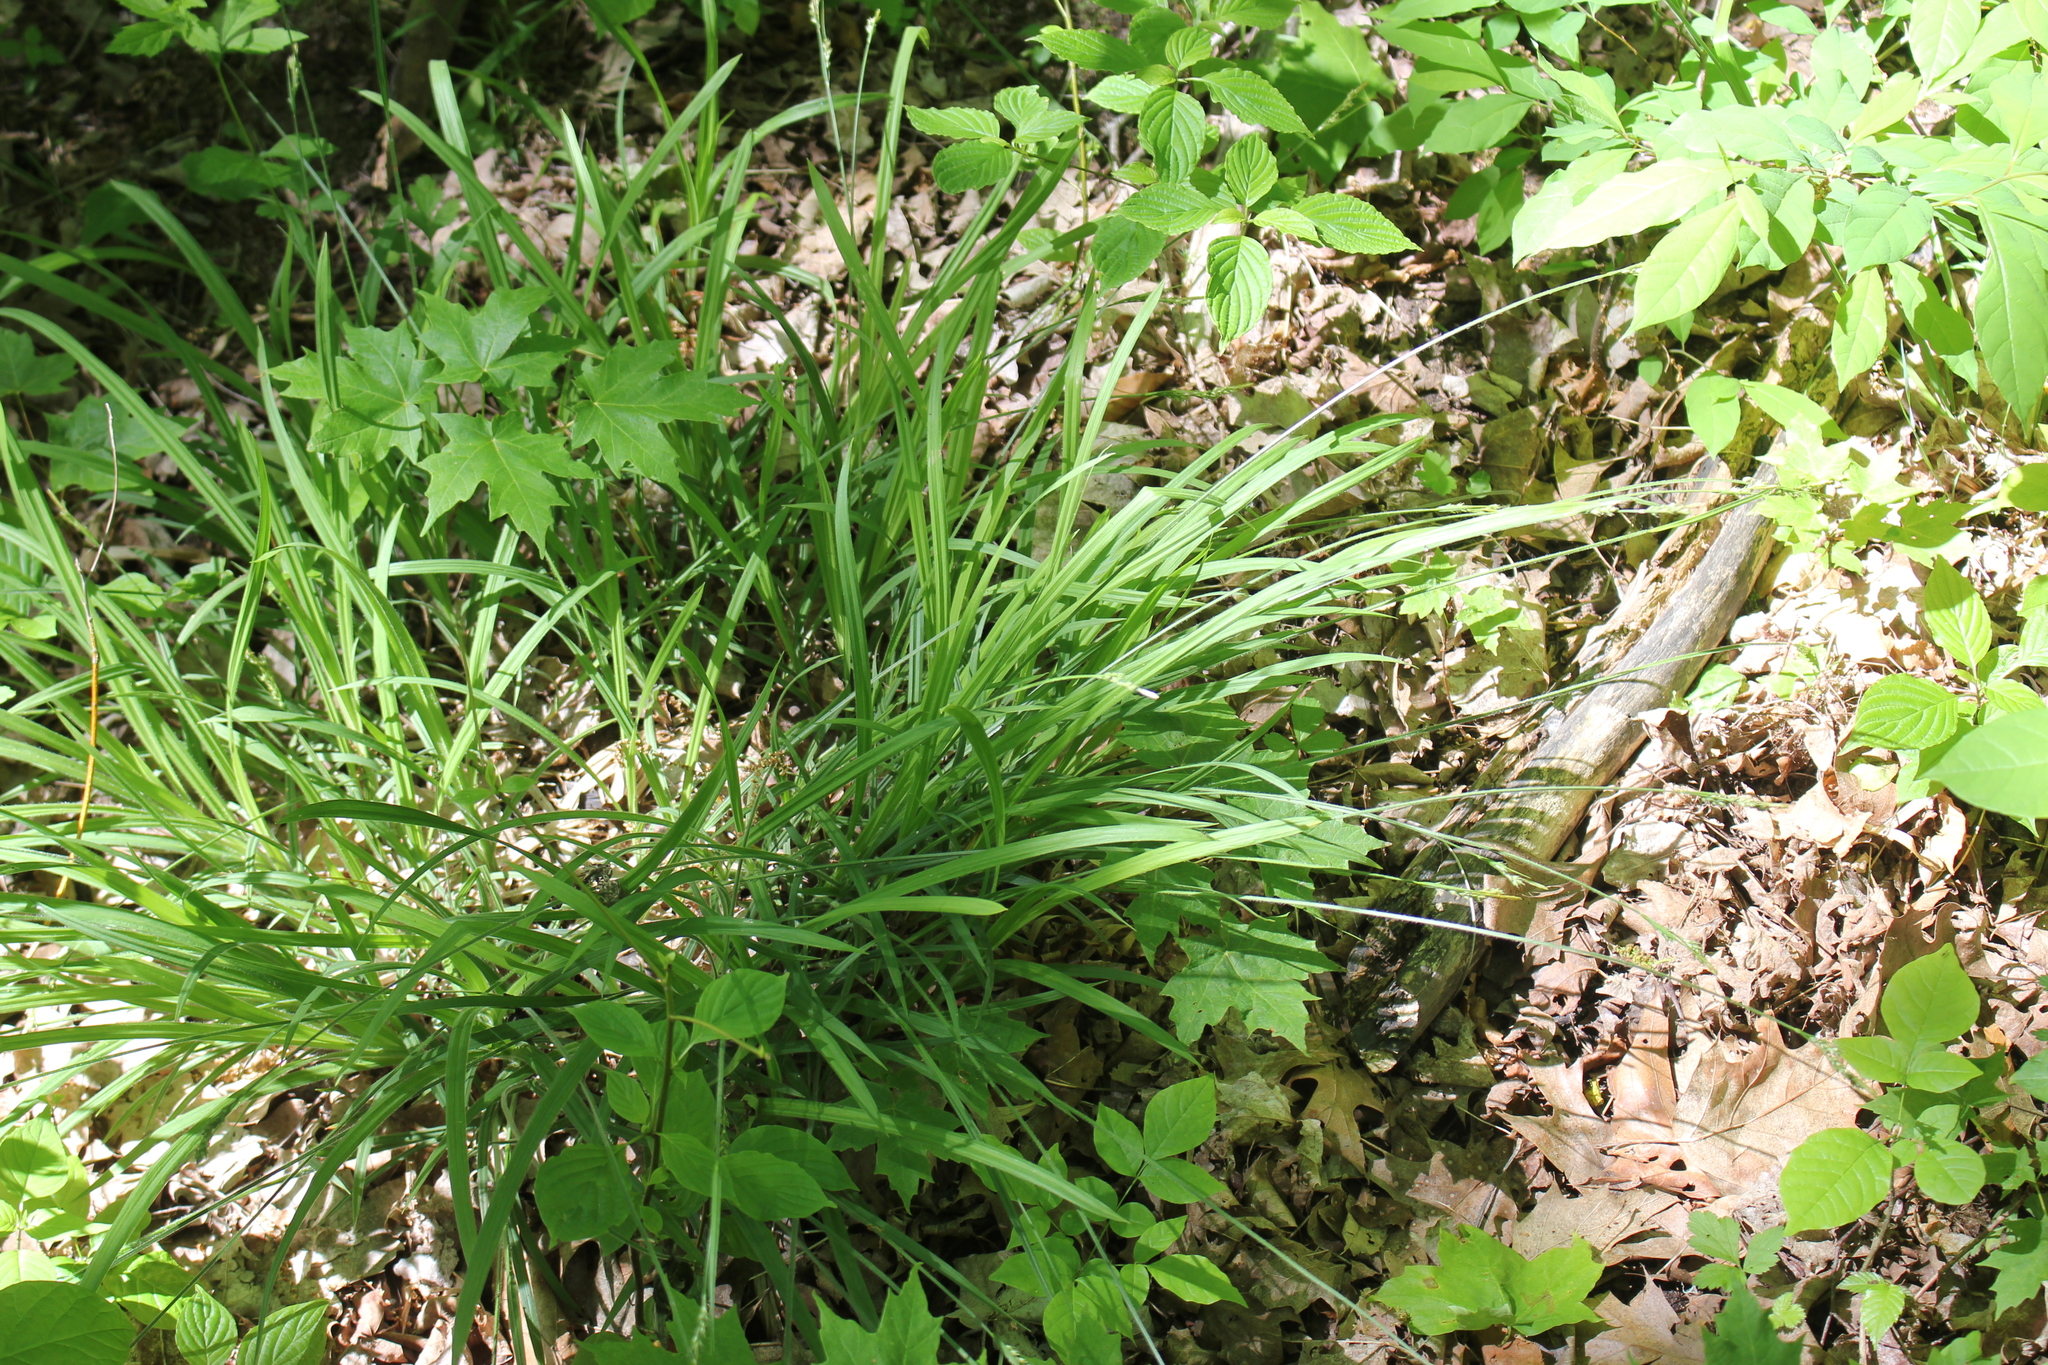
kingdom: Plantae
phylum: Tracheophyta
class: Liliopsida
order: Poales
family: Cyperaceae
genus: Carex
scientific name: Carex hirtifolia
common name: Hairy sedge
